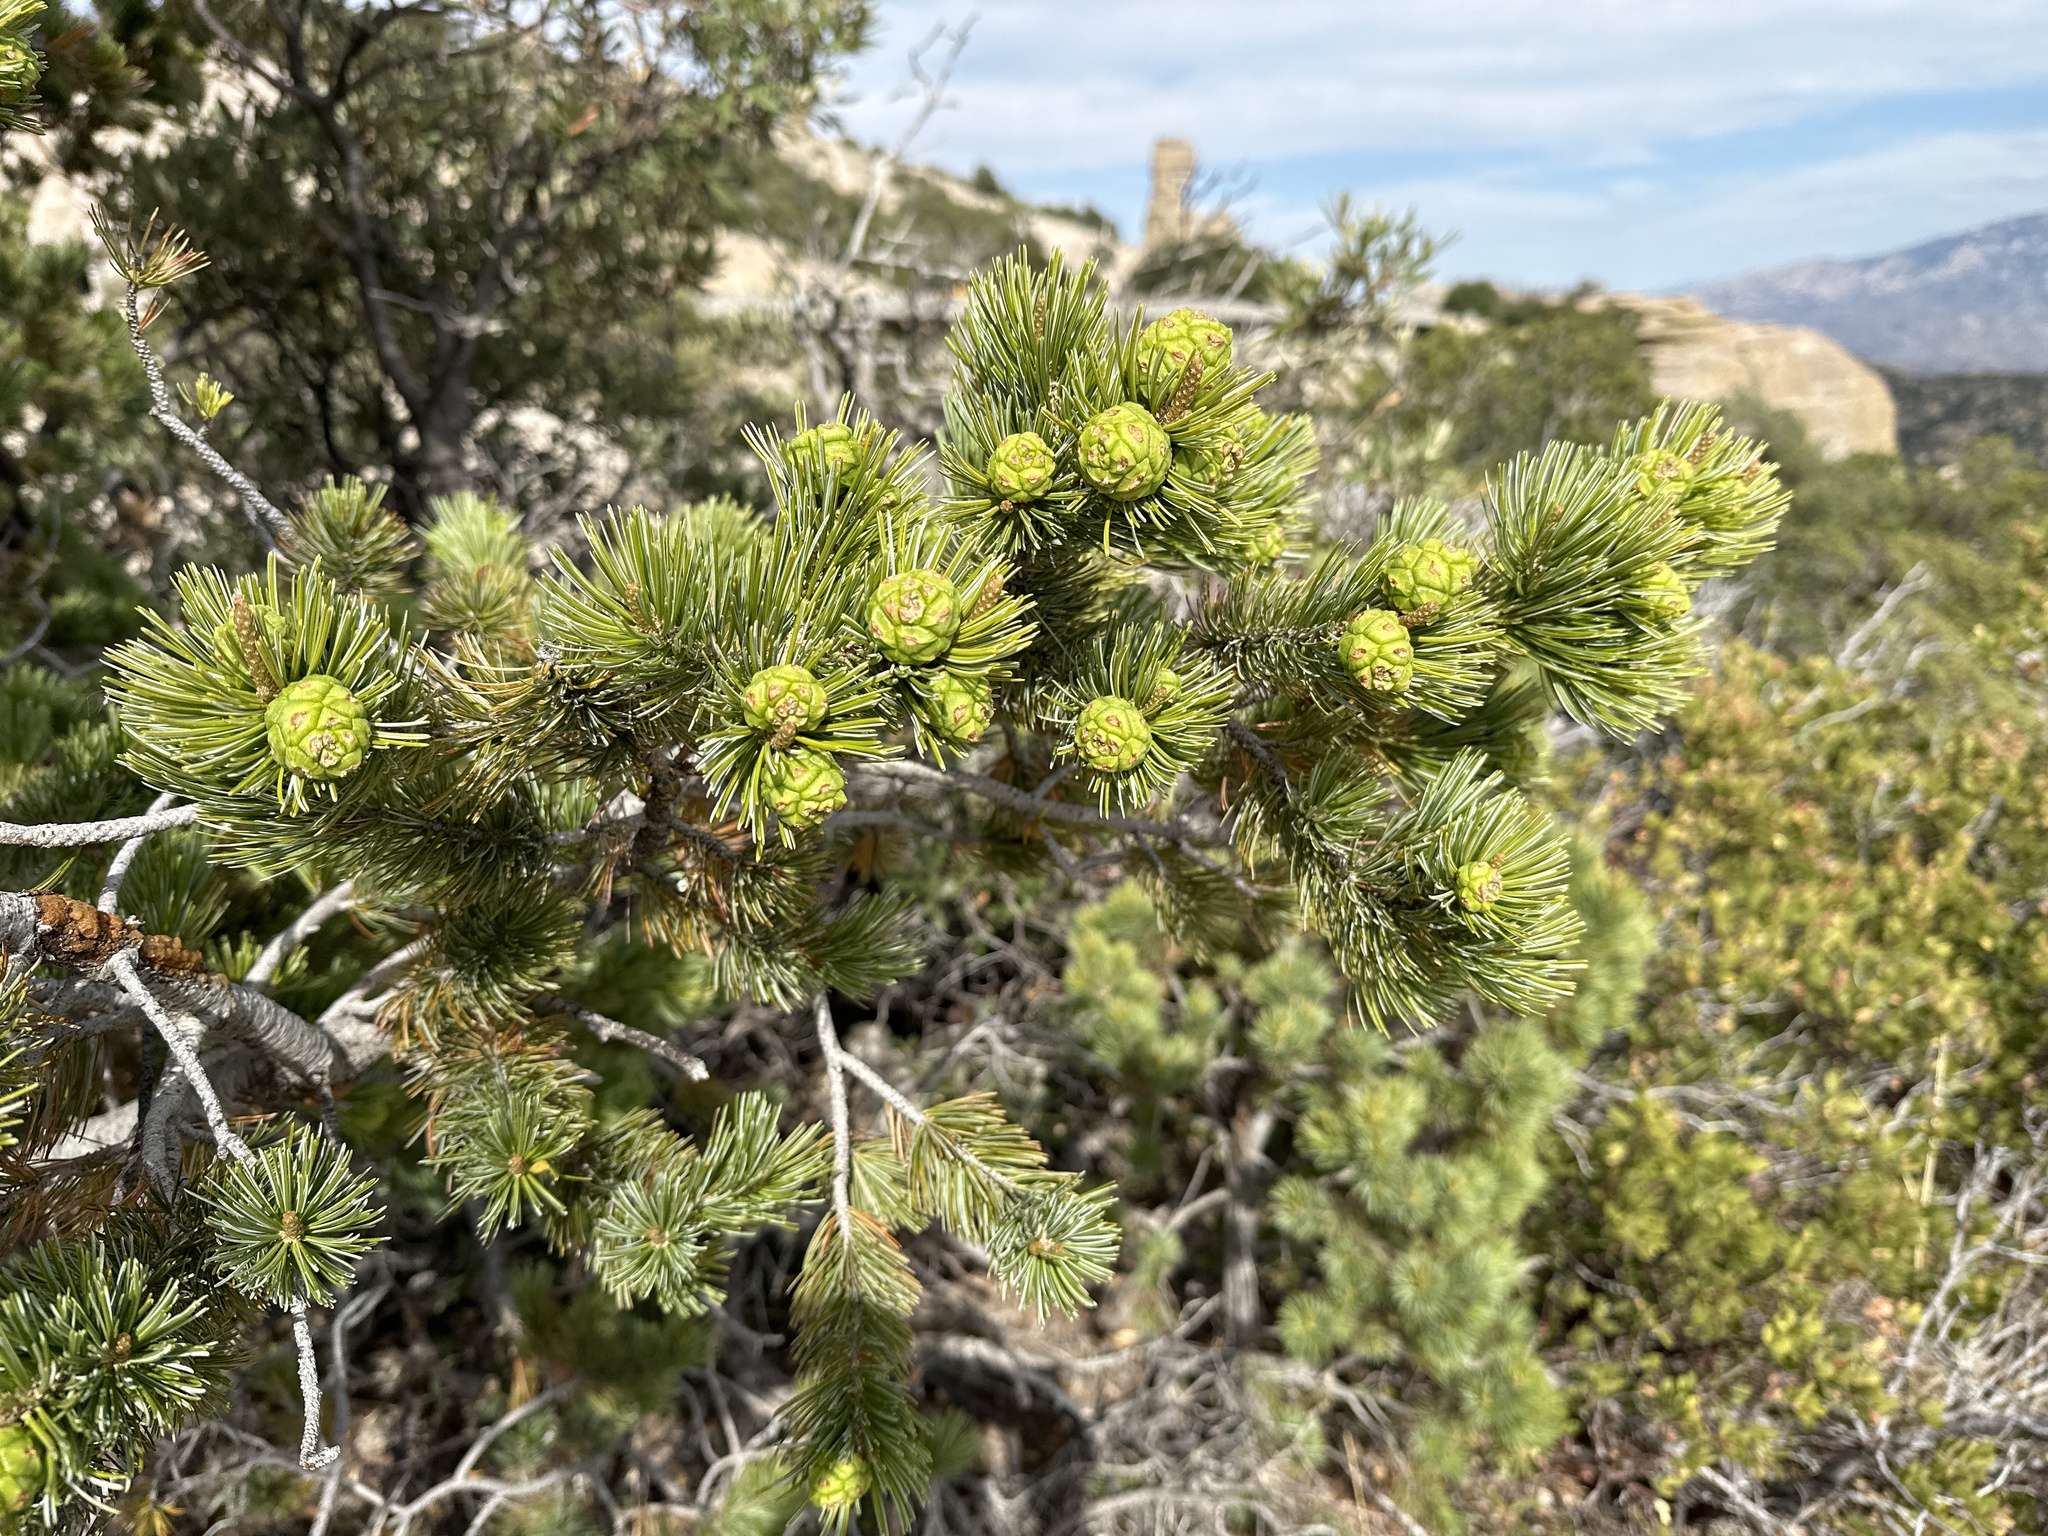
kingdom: Plantae
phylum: Tracheophyta
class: Pinopsida
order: Pinales
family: Pinaceae
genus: Pinus
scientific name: Pinus cembroides
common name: Mexican nut pine
